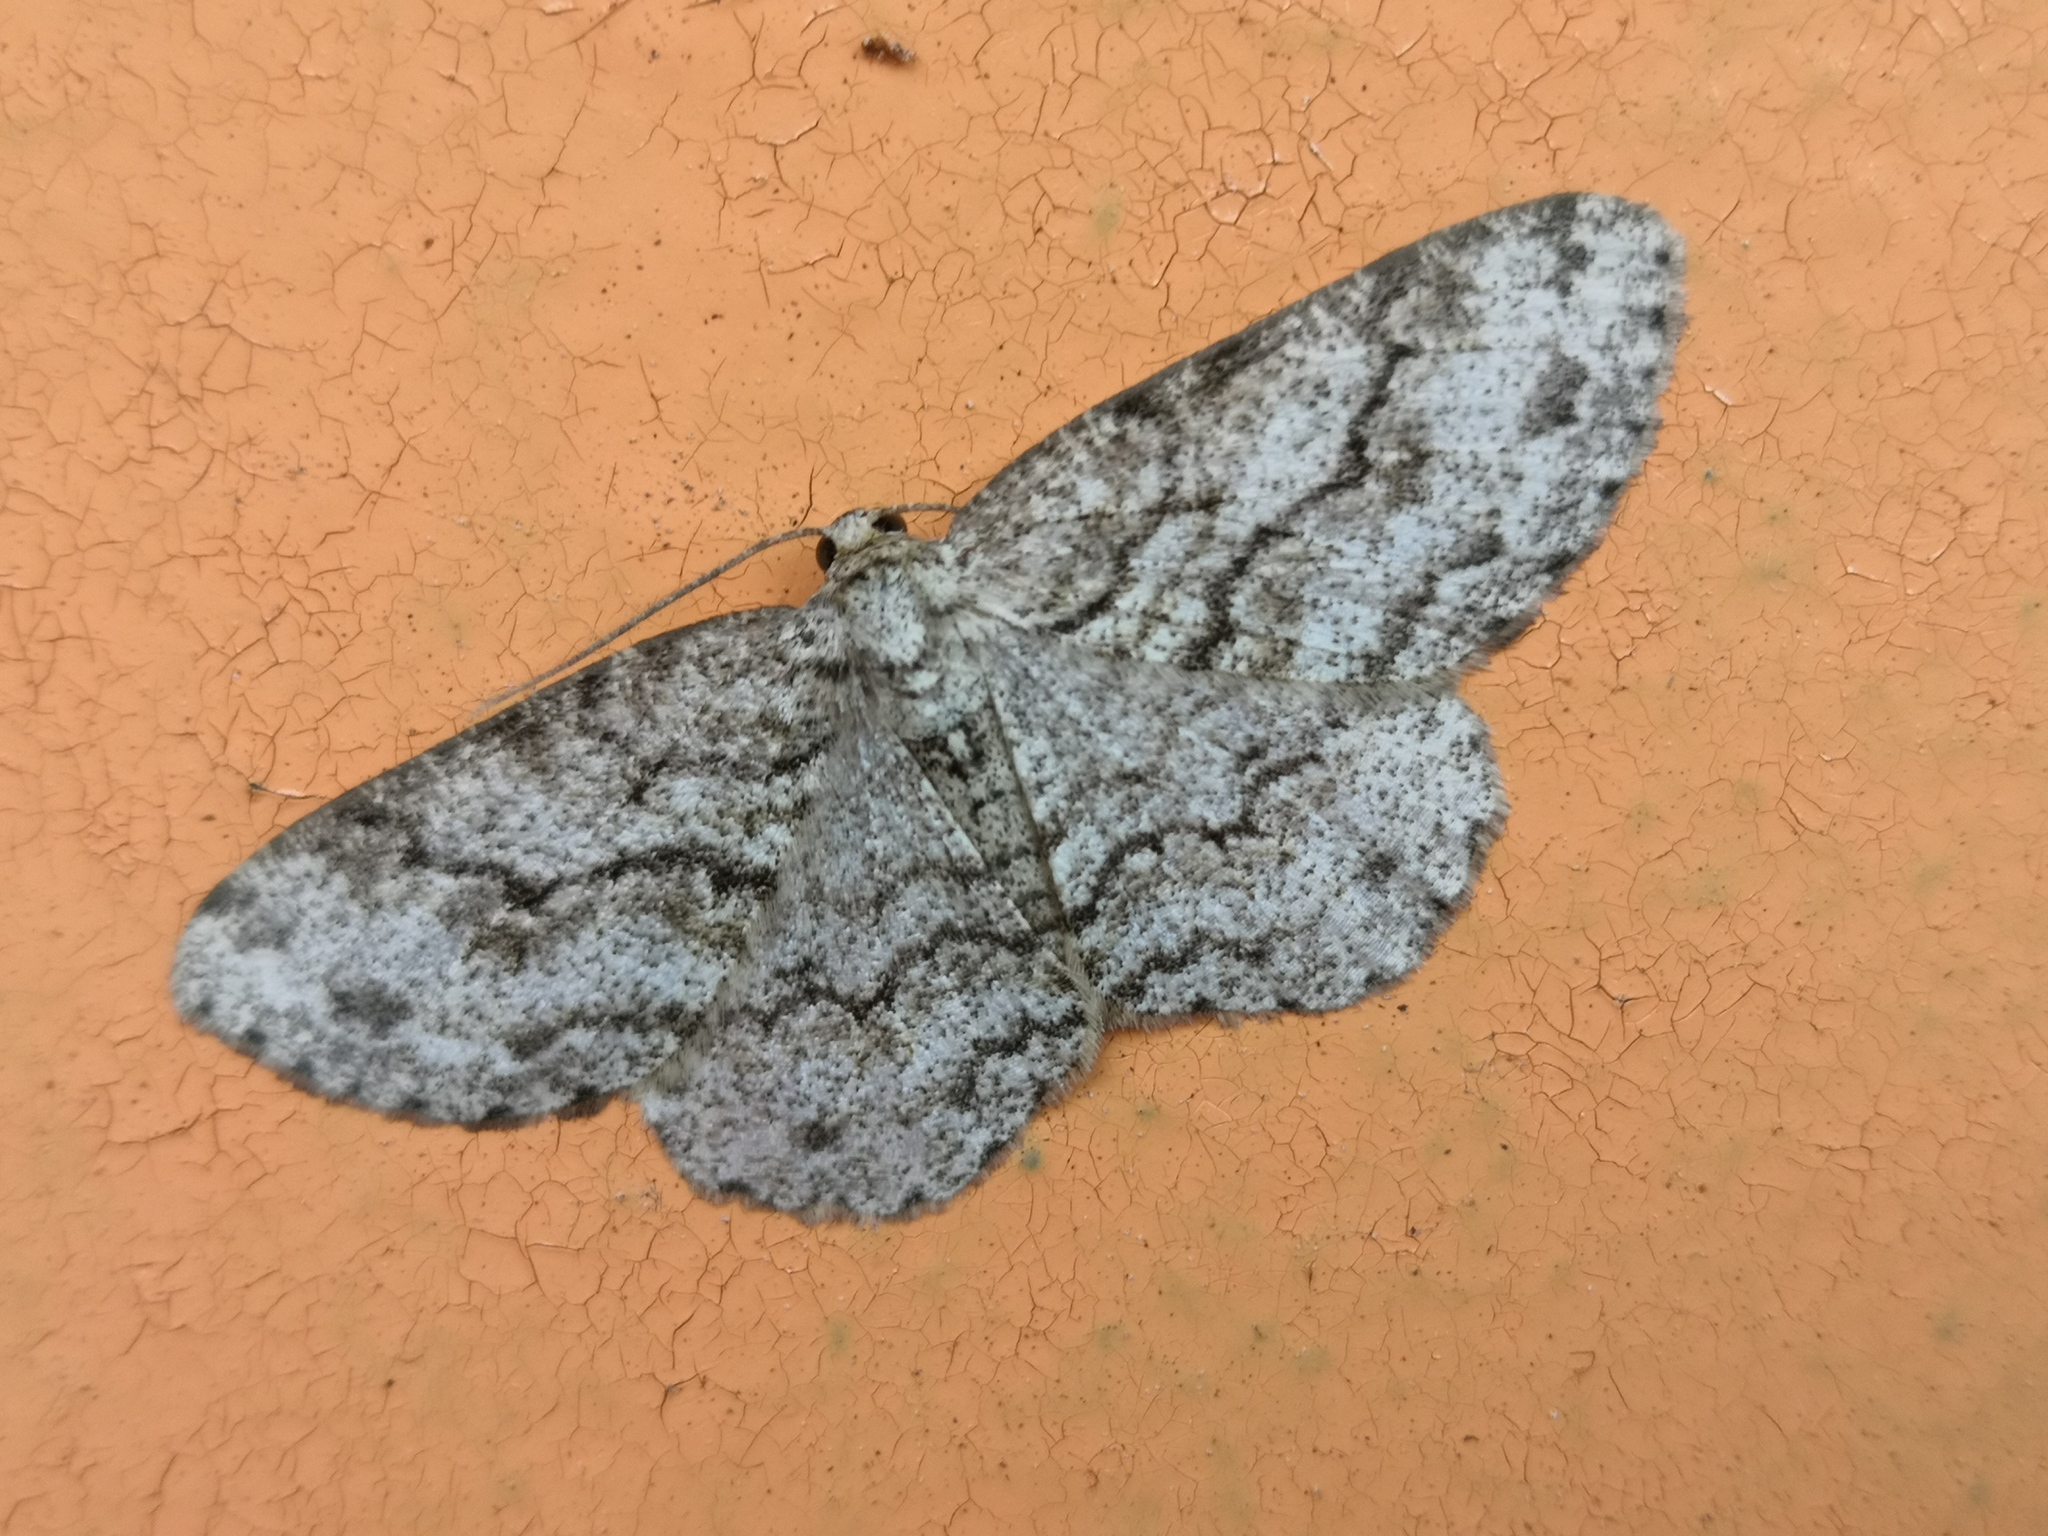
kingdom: Animalia
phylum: Arthropoda
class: Insecta
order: Lepidoptera
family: Geometridae
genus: Ectropis
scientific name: Ectropis crepuscularia
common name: Engrailed
